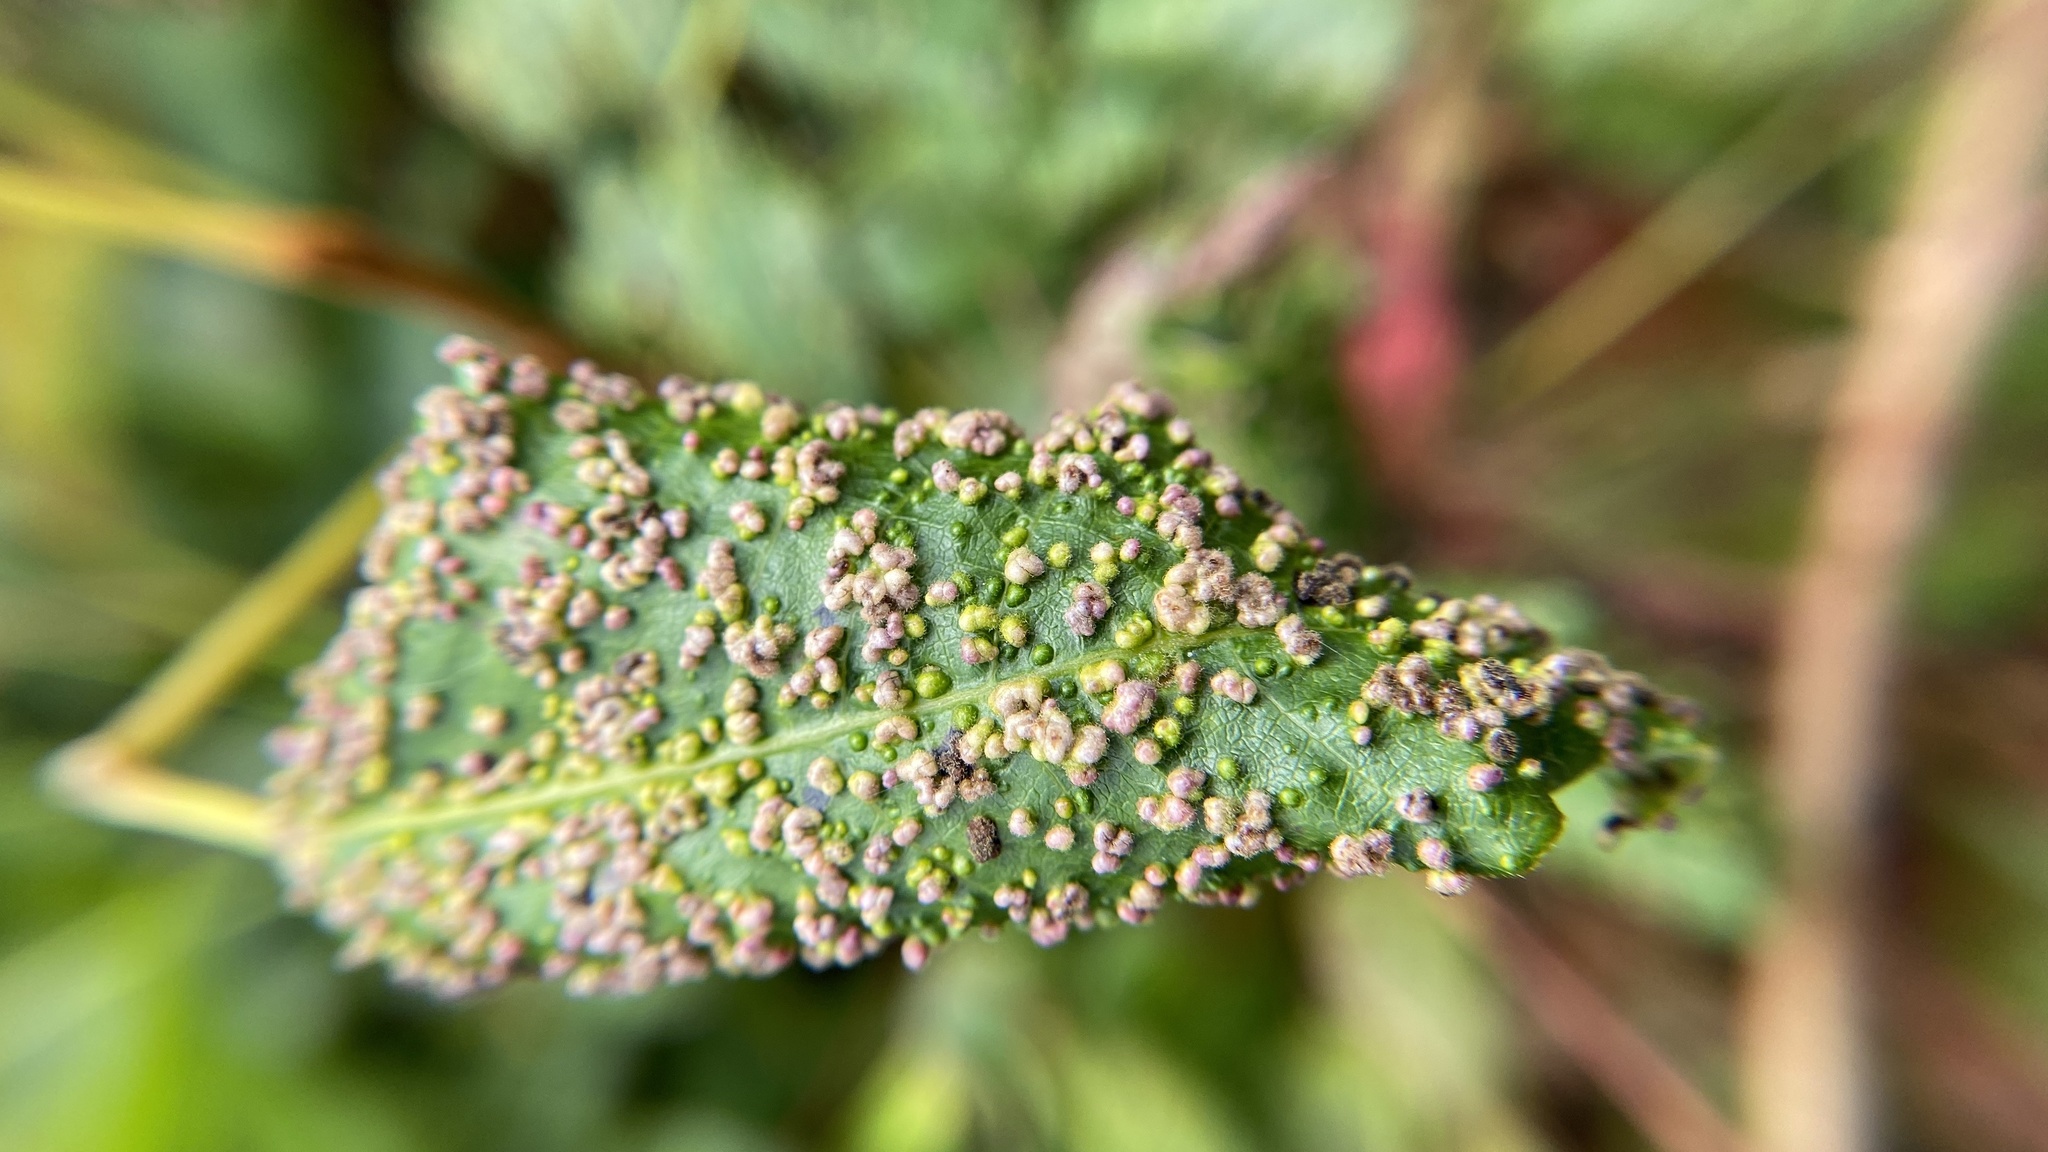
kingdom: Animalia
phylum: Arthropoda
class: Arachnida
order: Trombidiformes
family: Eriophyidae
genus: Aculops
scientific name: Aculops
